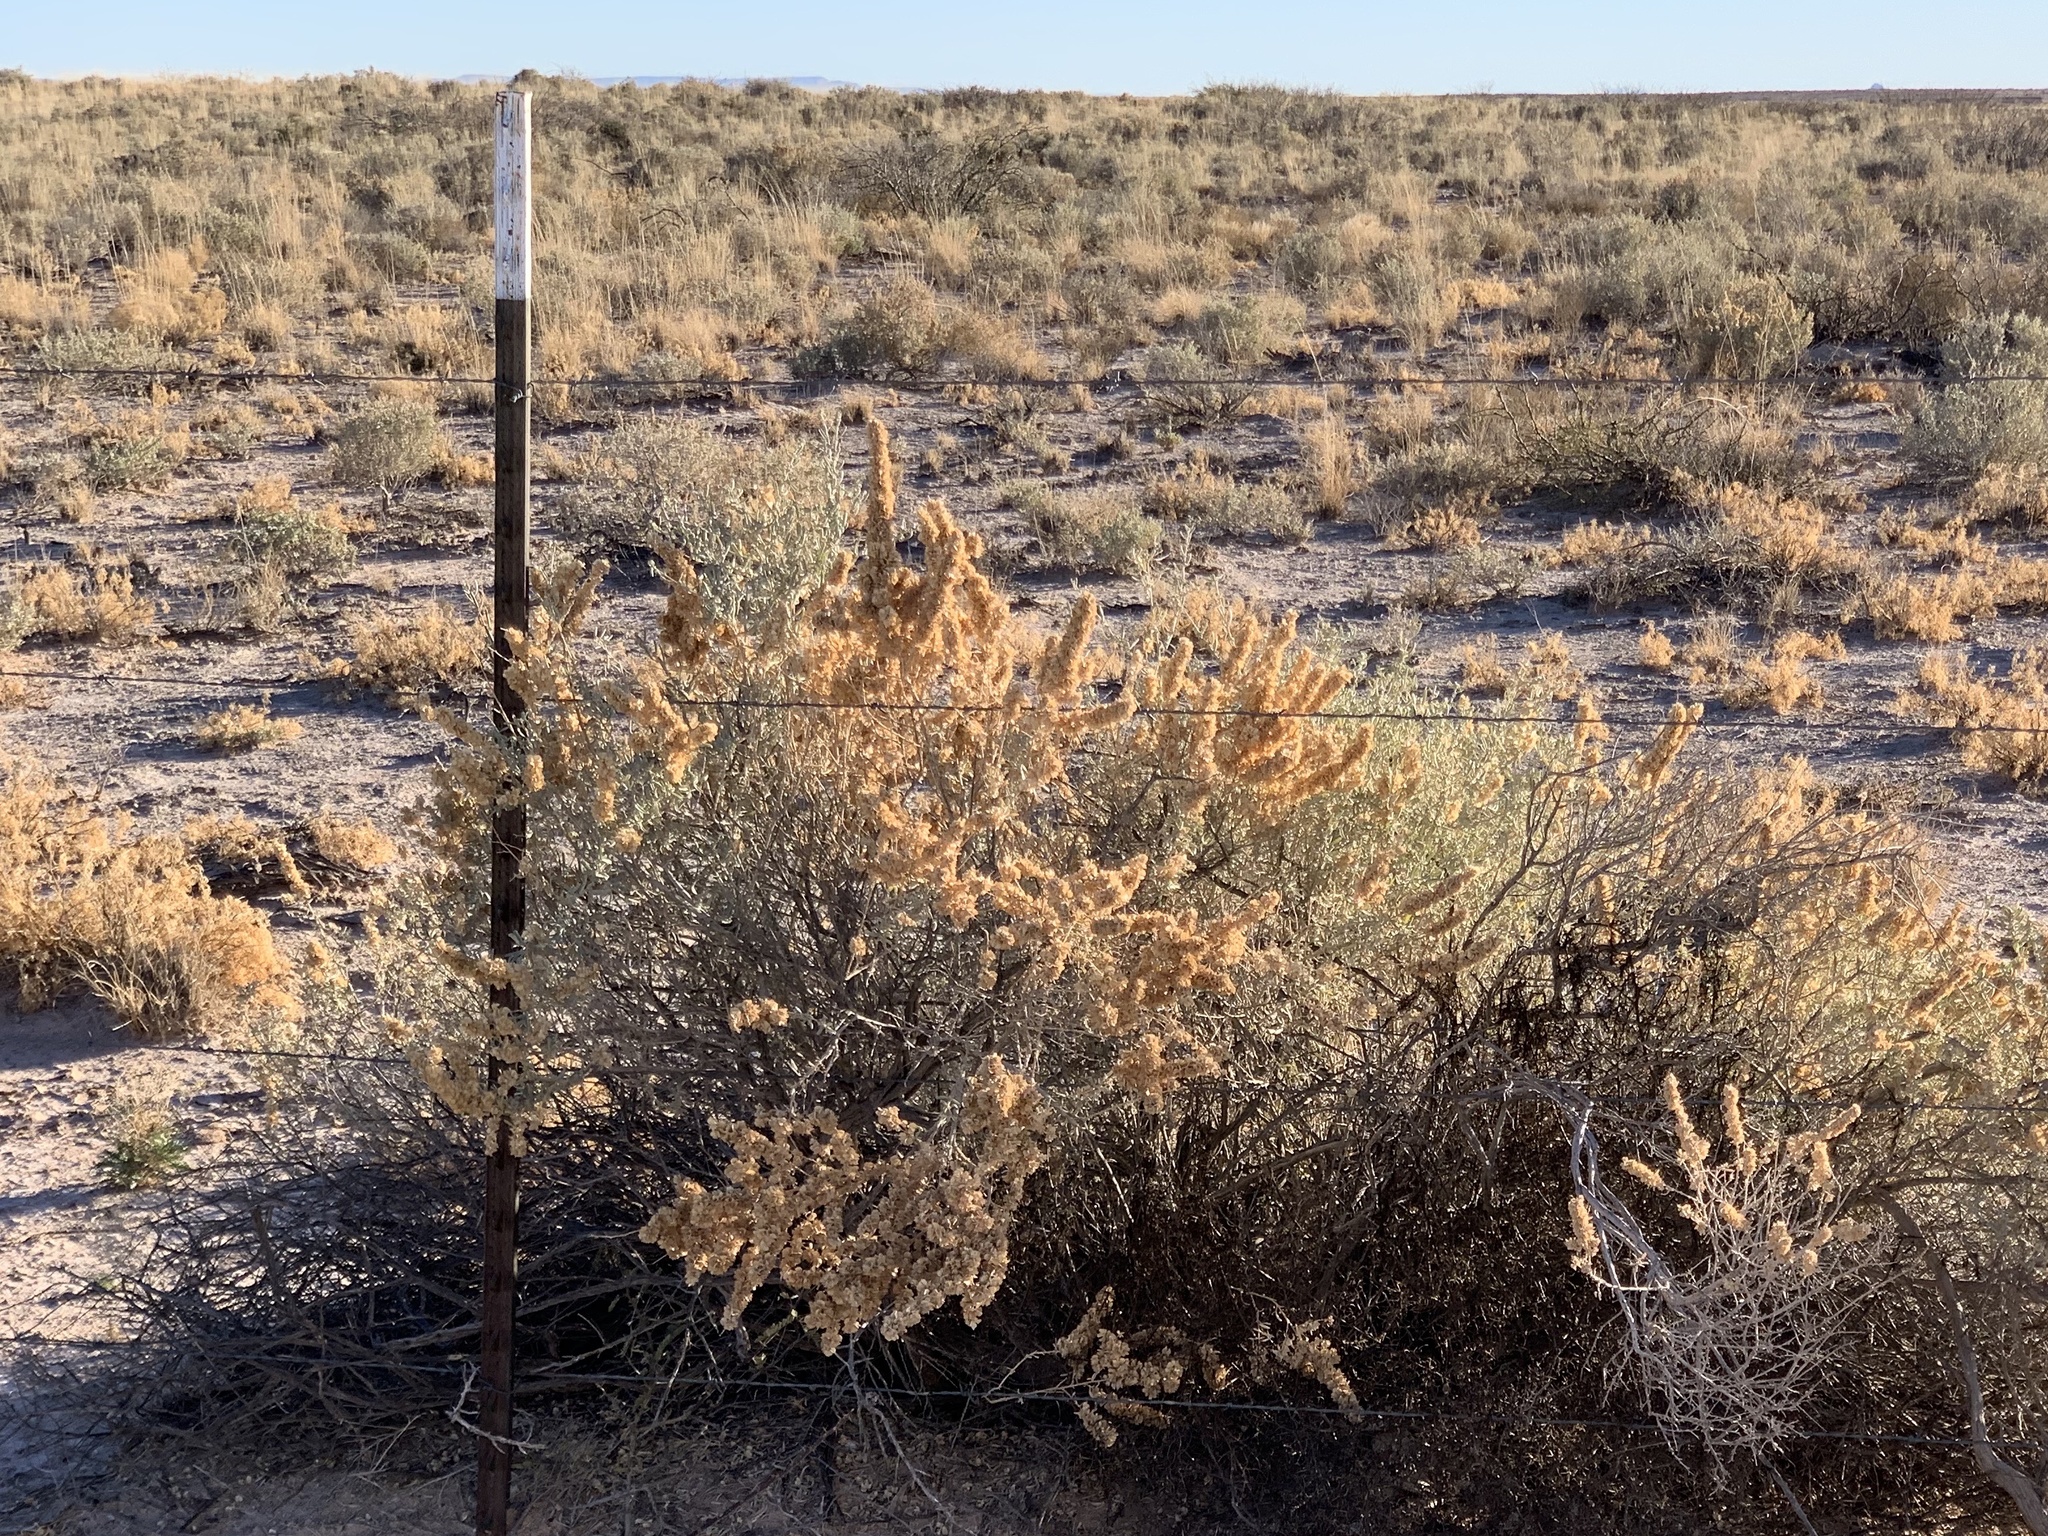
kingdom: Plantae
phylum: Tracheophyta
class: Magnoliopsida
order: Caryophyllales
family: Amaranthaceae
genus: Atriplex
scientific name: Atriplex canescens
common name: Four-wing saltbush
